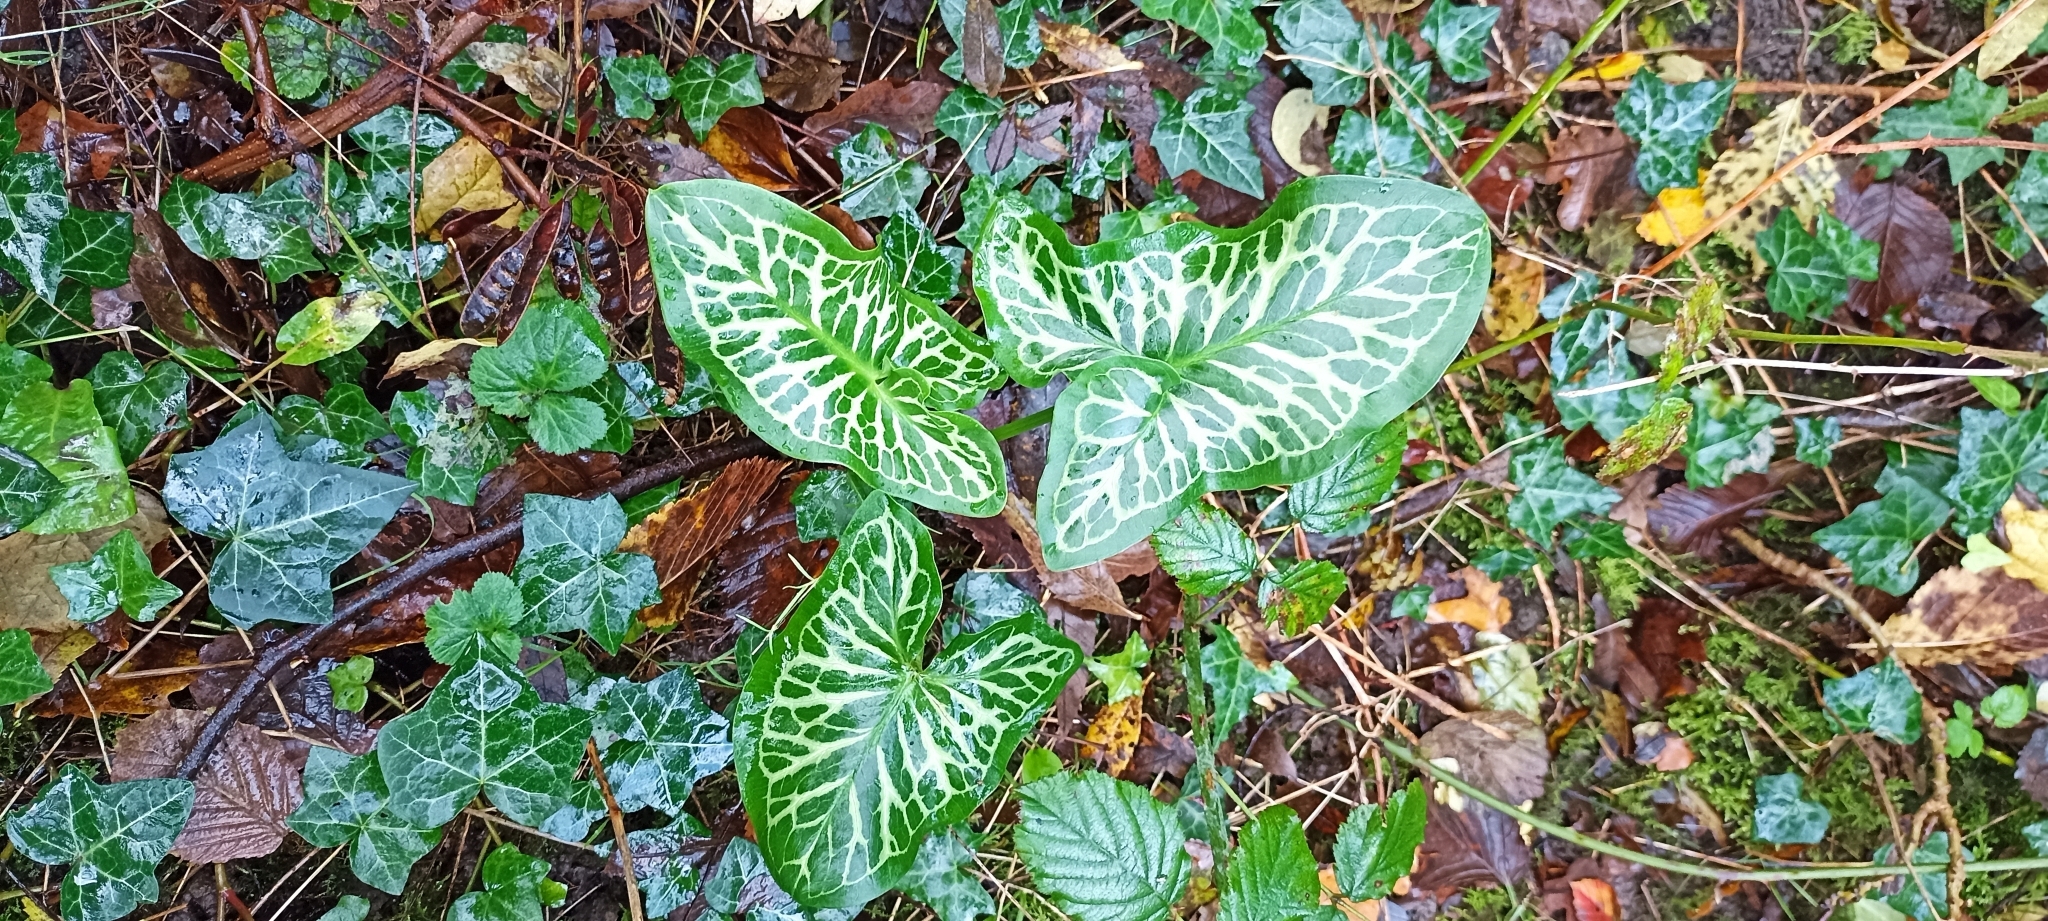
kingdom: Plantae
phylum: Tracheophyta
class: Liliopsida
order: Alismatales
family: Araceae
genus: Arum
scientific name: Arum italicum
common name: Italian lords-and-ladies
